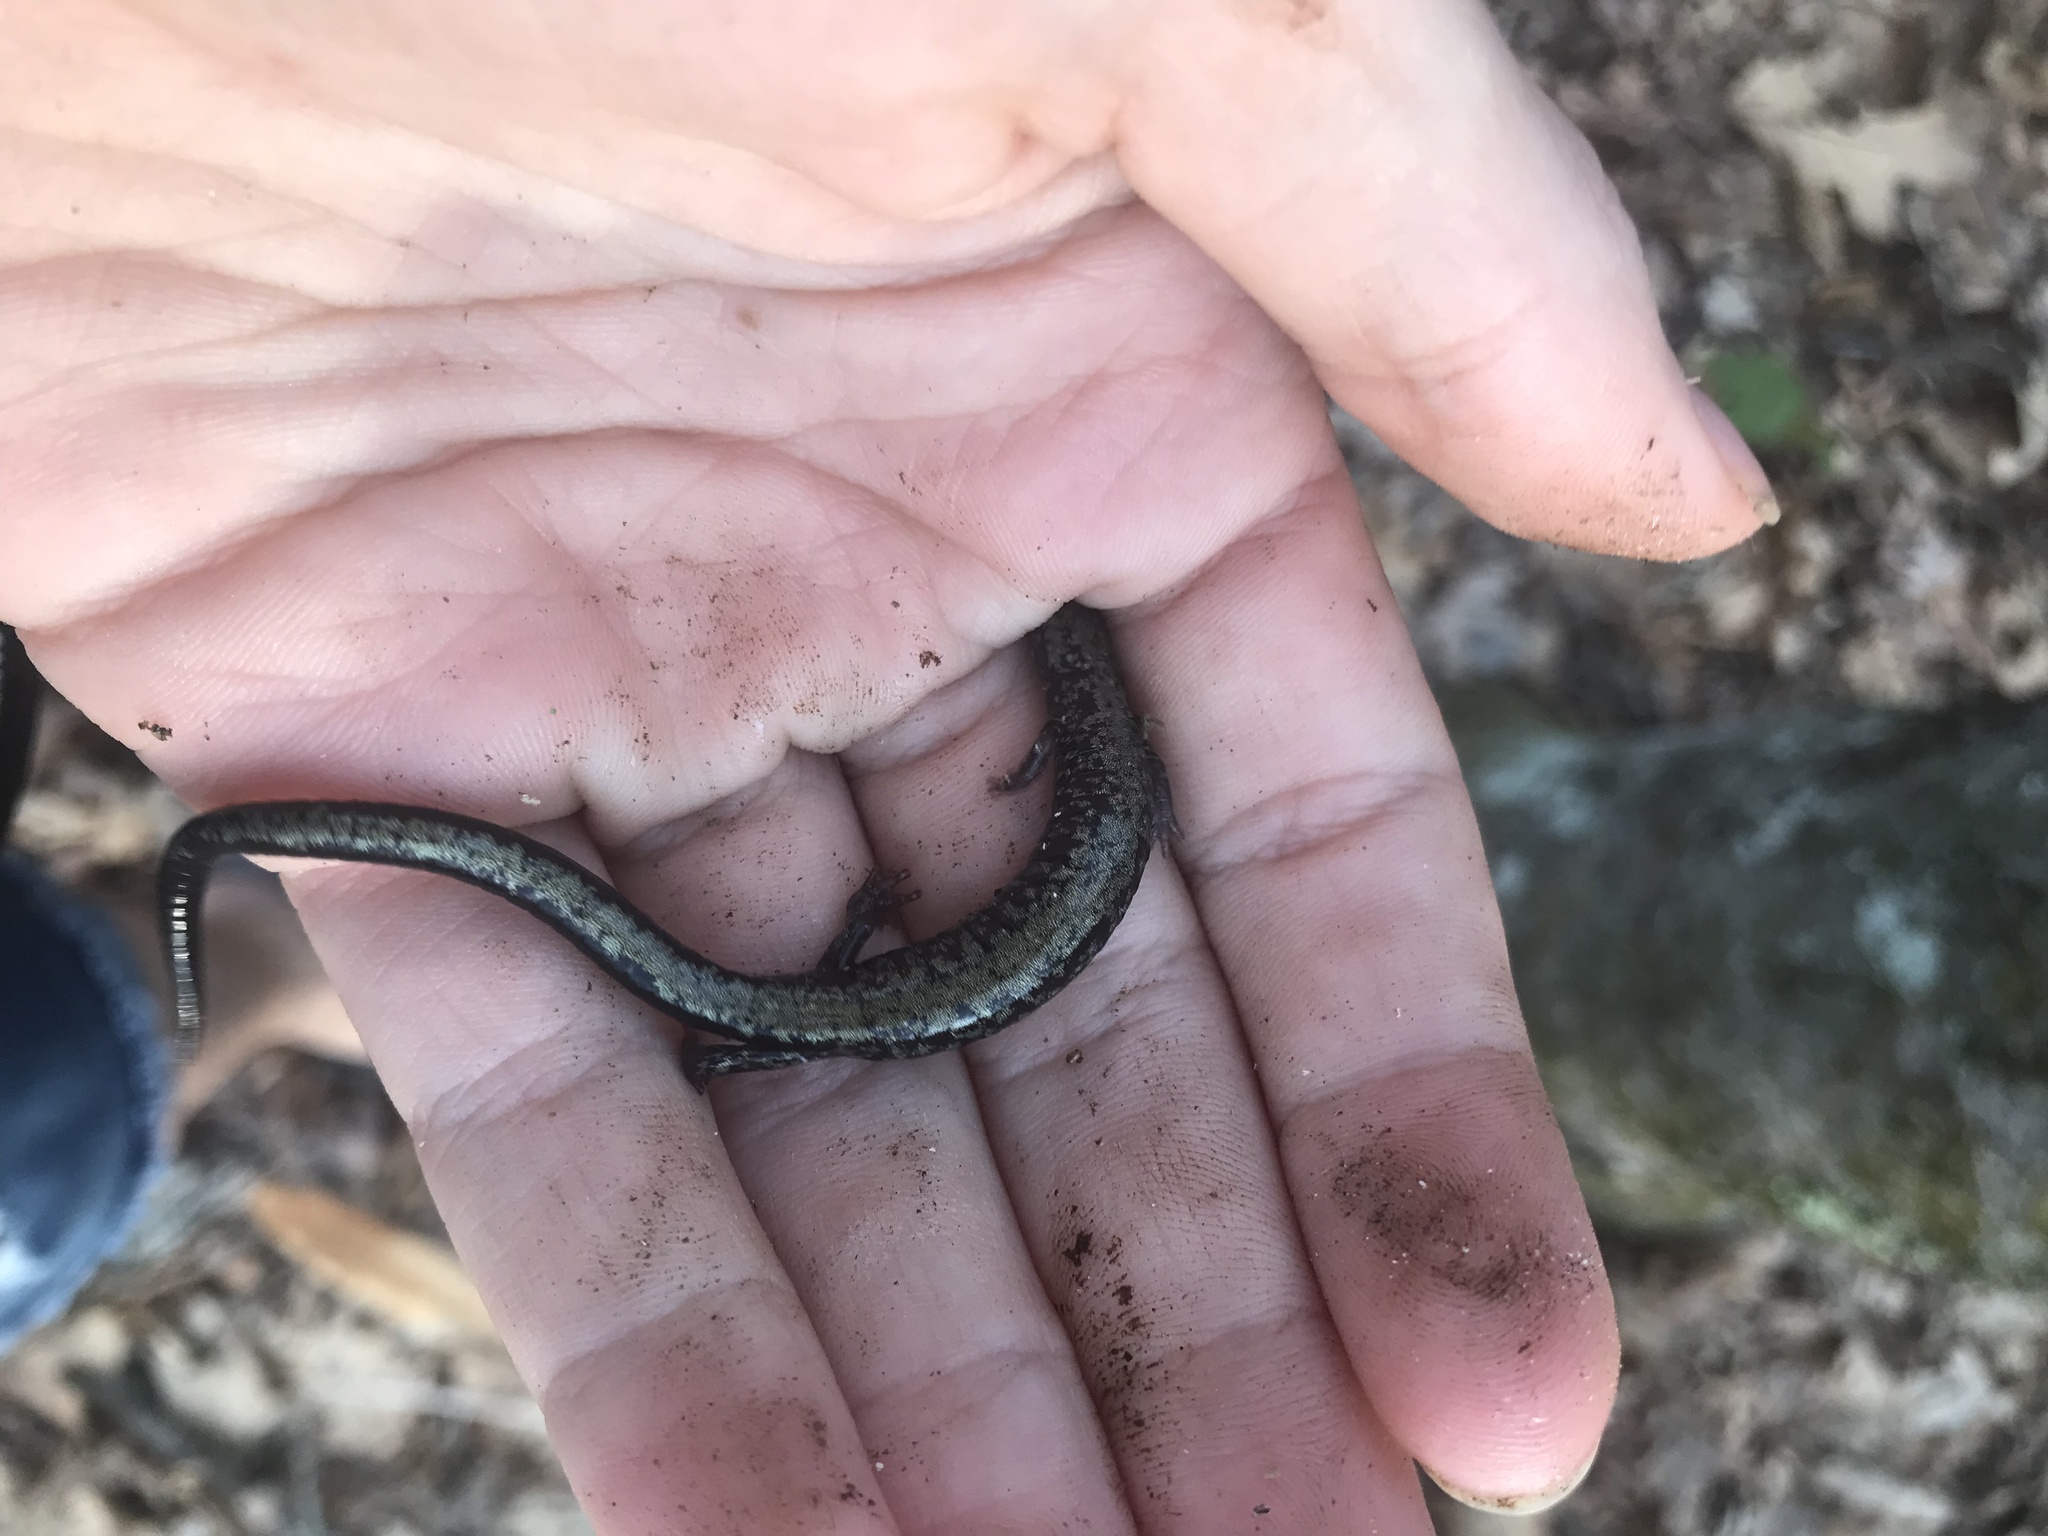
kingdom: Animalia
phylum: Chordata
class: Amphibia
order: Caudata
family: Plethodontidae
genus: Plethodon
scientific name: Plethodon hubrichti
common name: Peaks of otter salamander
